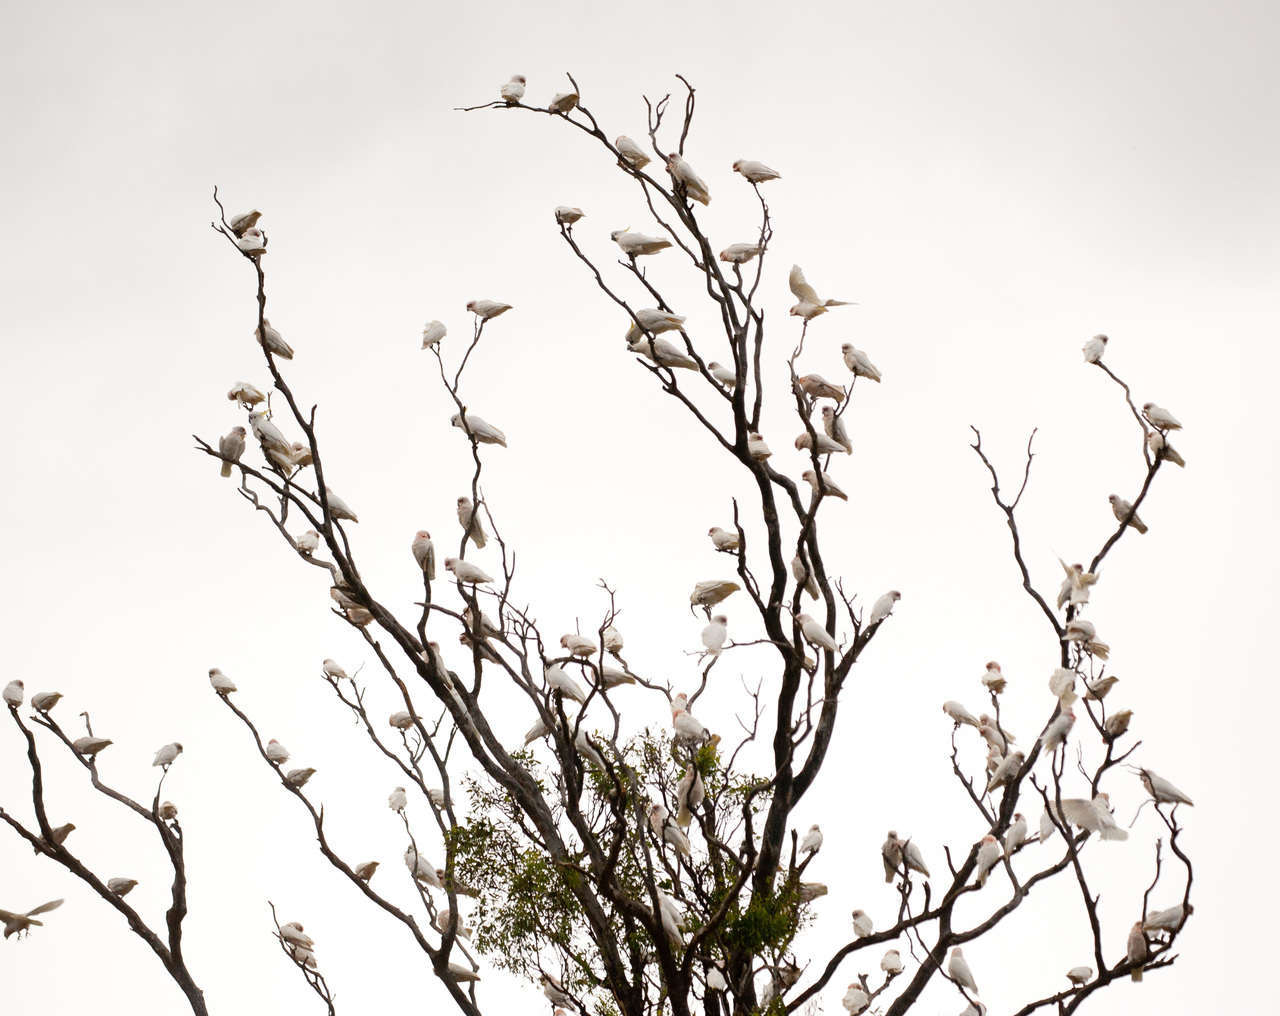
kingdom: Animalia
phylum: Chordata
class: Aves
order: Psittaciformes
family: Psittacidae
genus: Cacatua
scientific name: Cacatua tenuirostris
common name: Long-billed corella
